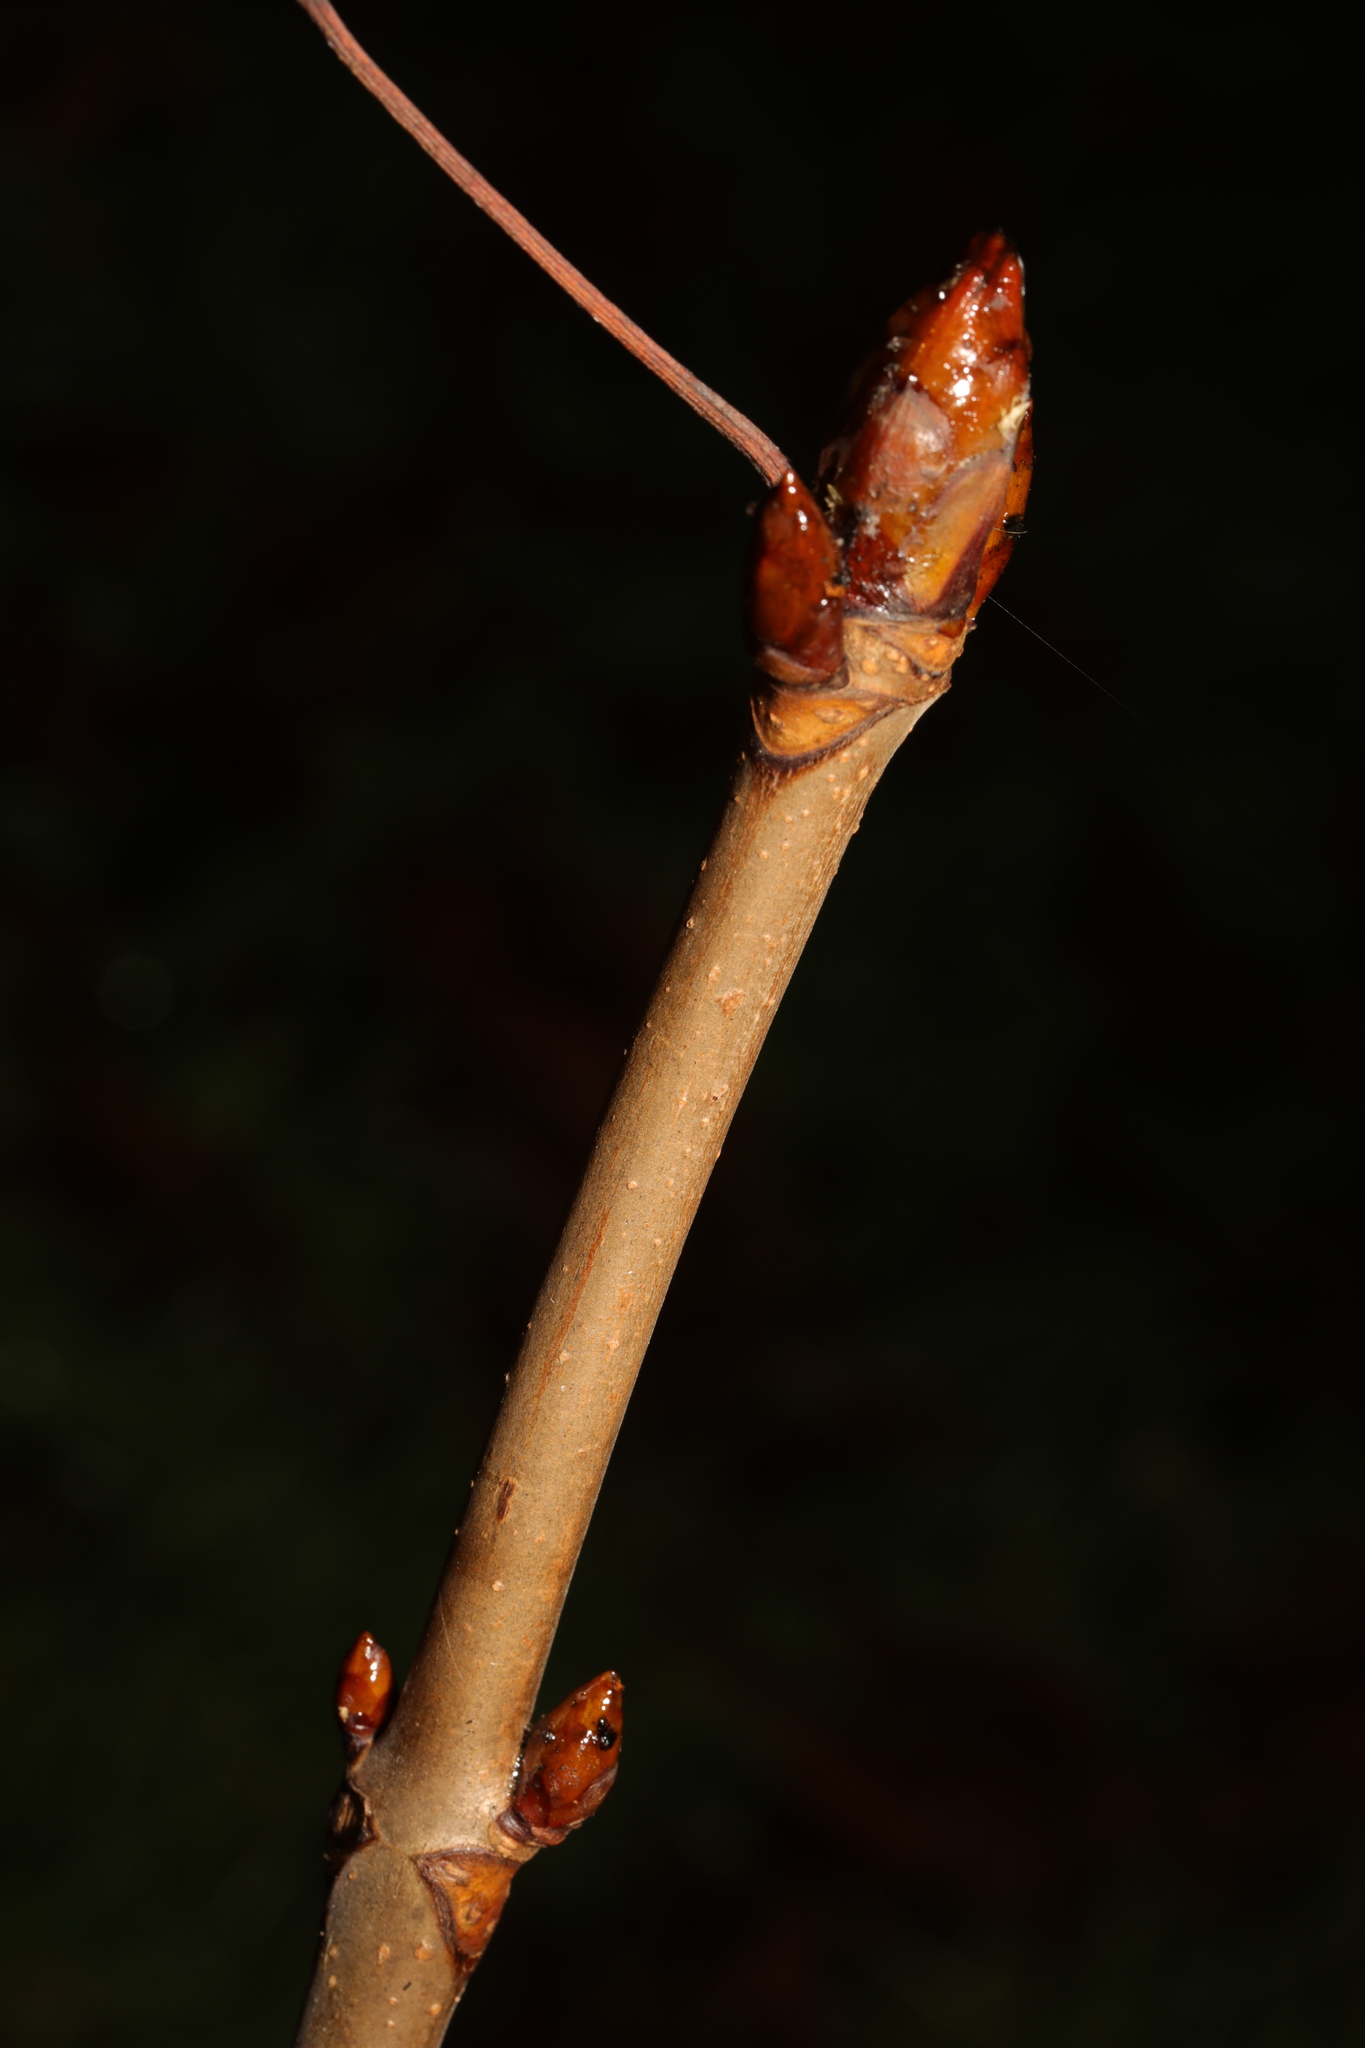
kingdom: Plantae
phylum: Tracheophyta
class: Magnoliopsida
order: Sapindales
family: Sapindaceae
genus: Aesculus
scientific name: Aesculus hippocastanum
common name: Horse-chestnut
